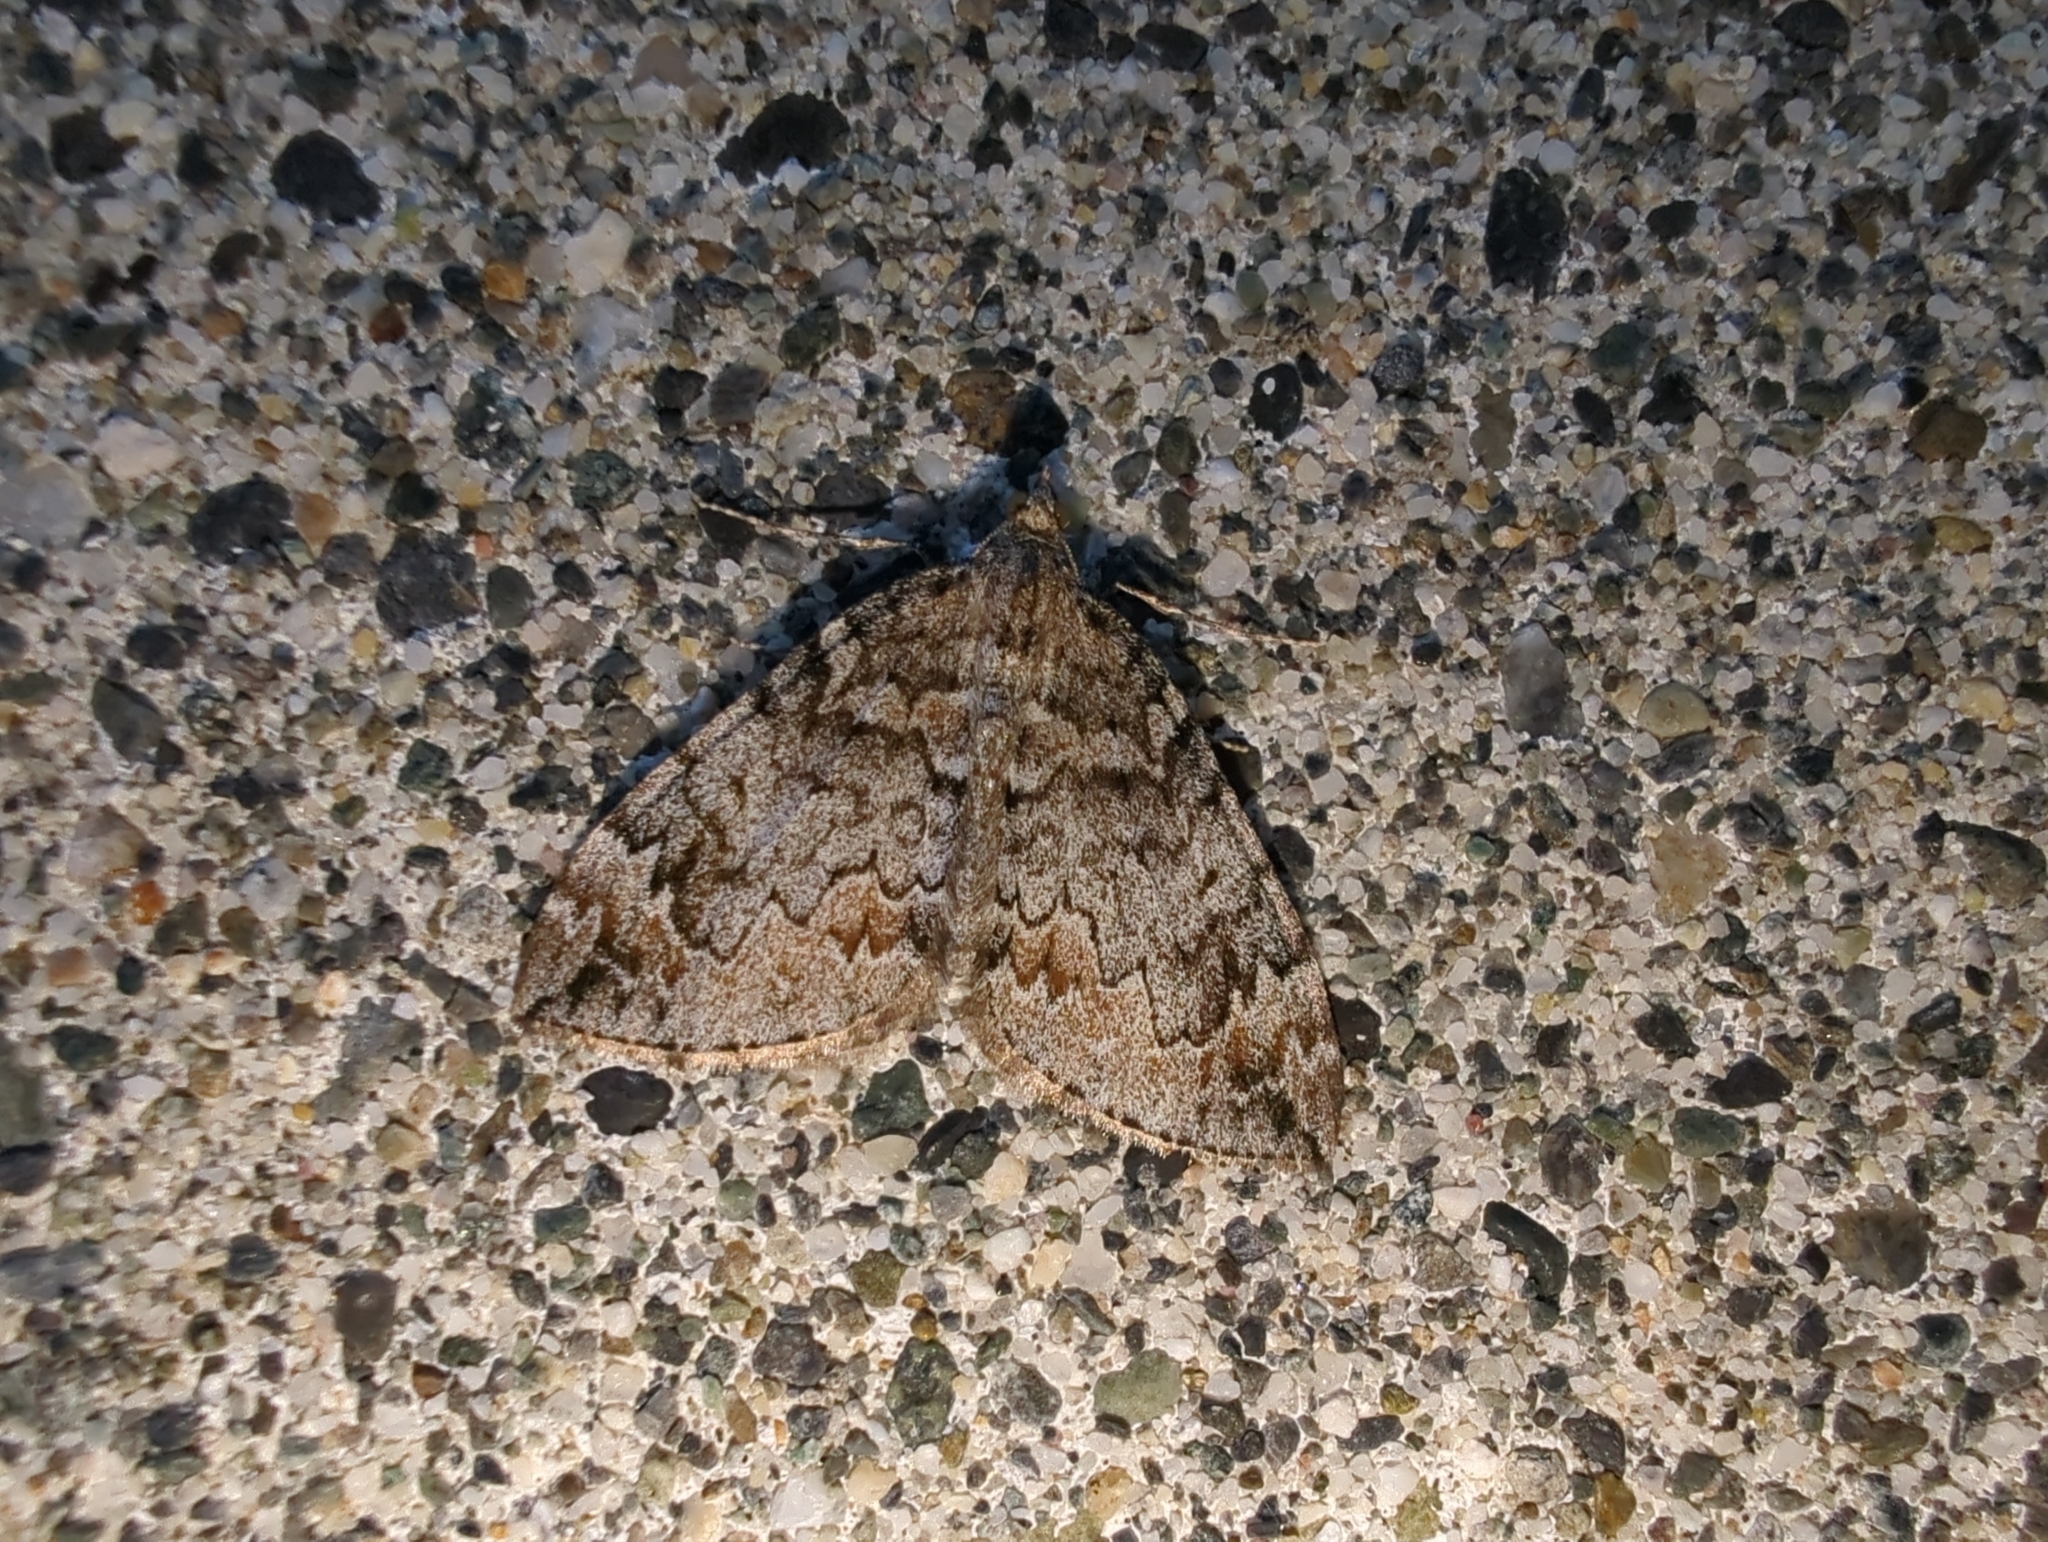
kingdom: Animalia
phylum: Arthropoda
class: Insecta
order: Lepidoptera
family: Geometridae
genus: Dysstroma
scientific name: Dysstroma citrata
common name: Dark marbled carpet
